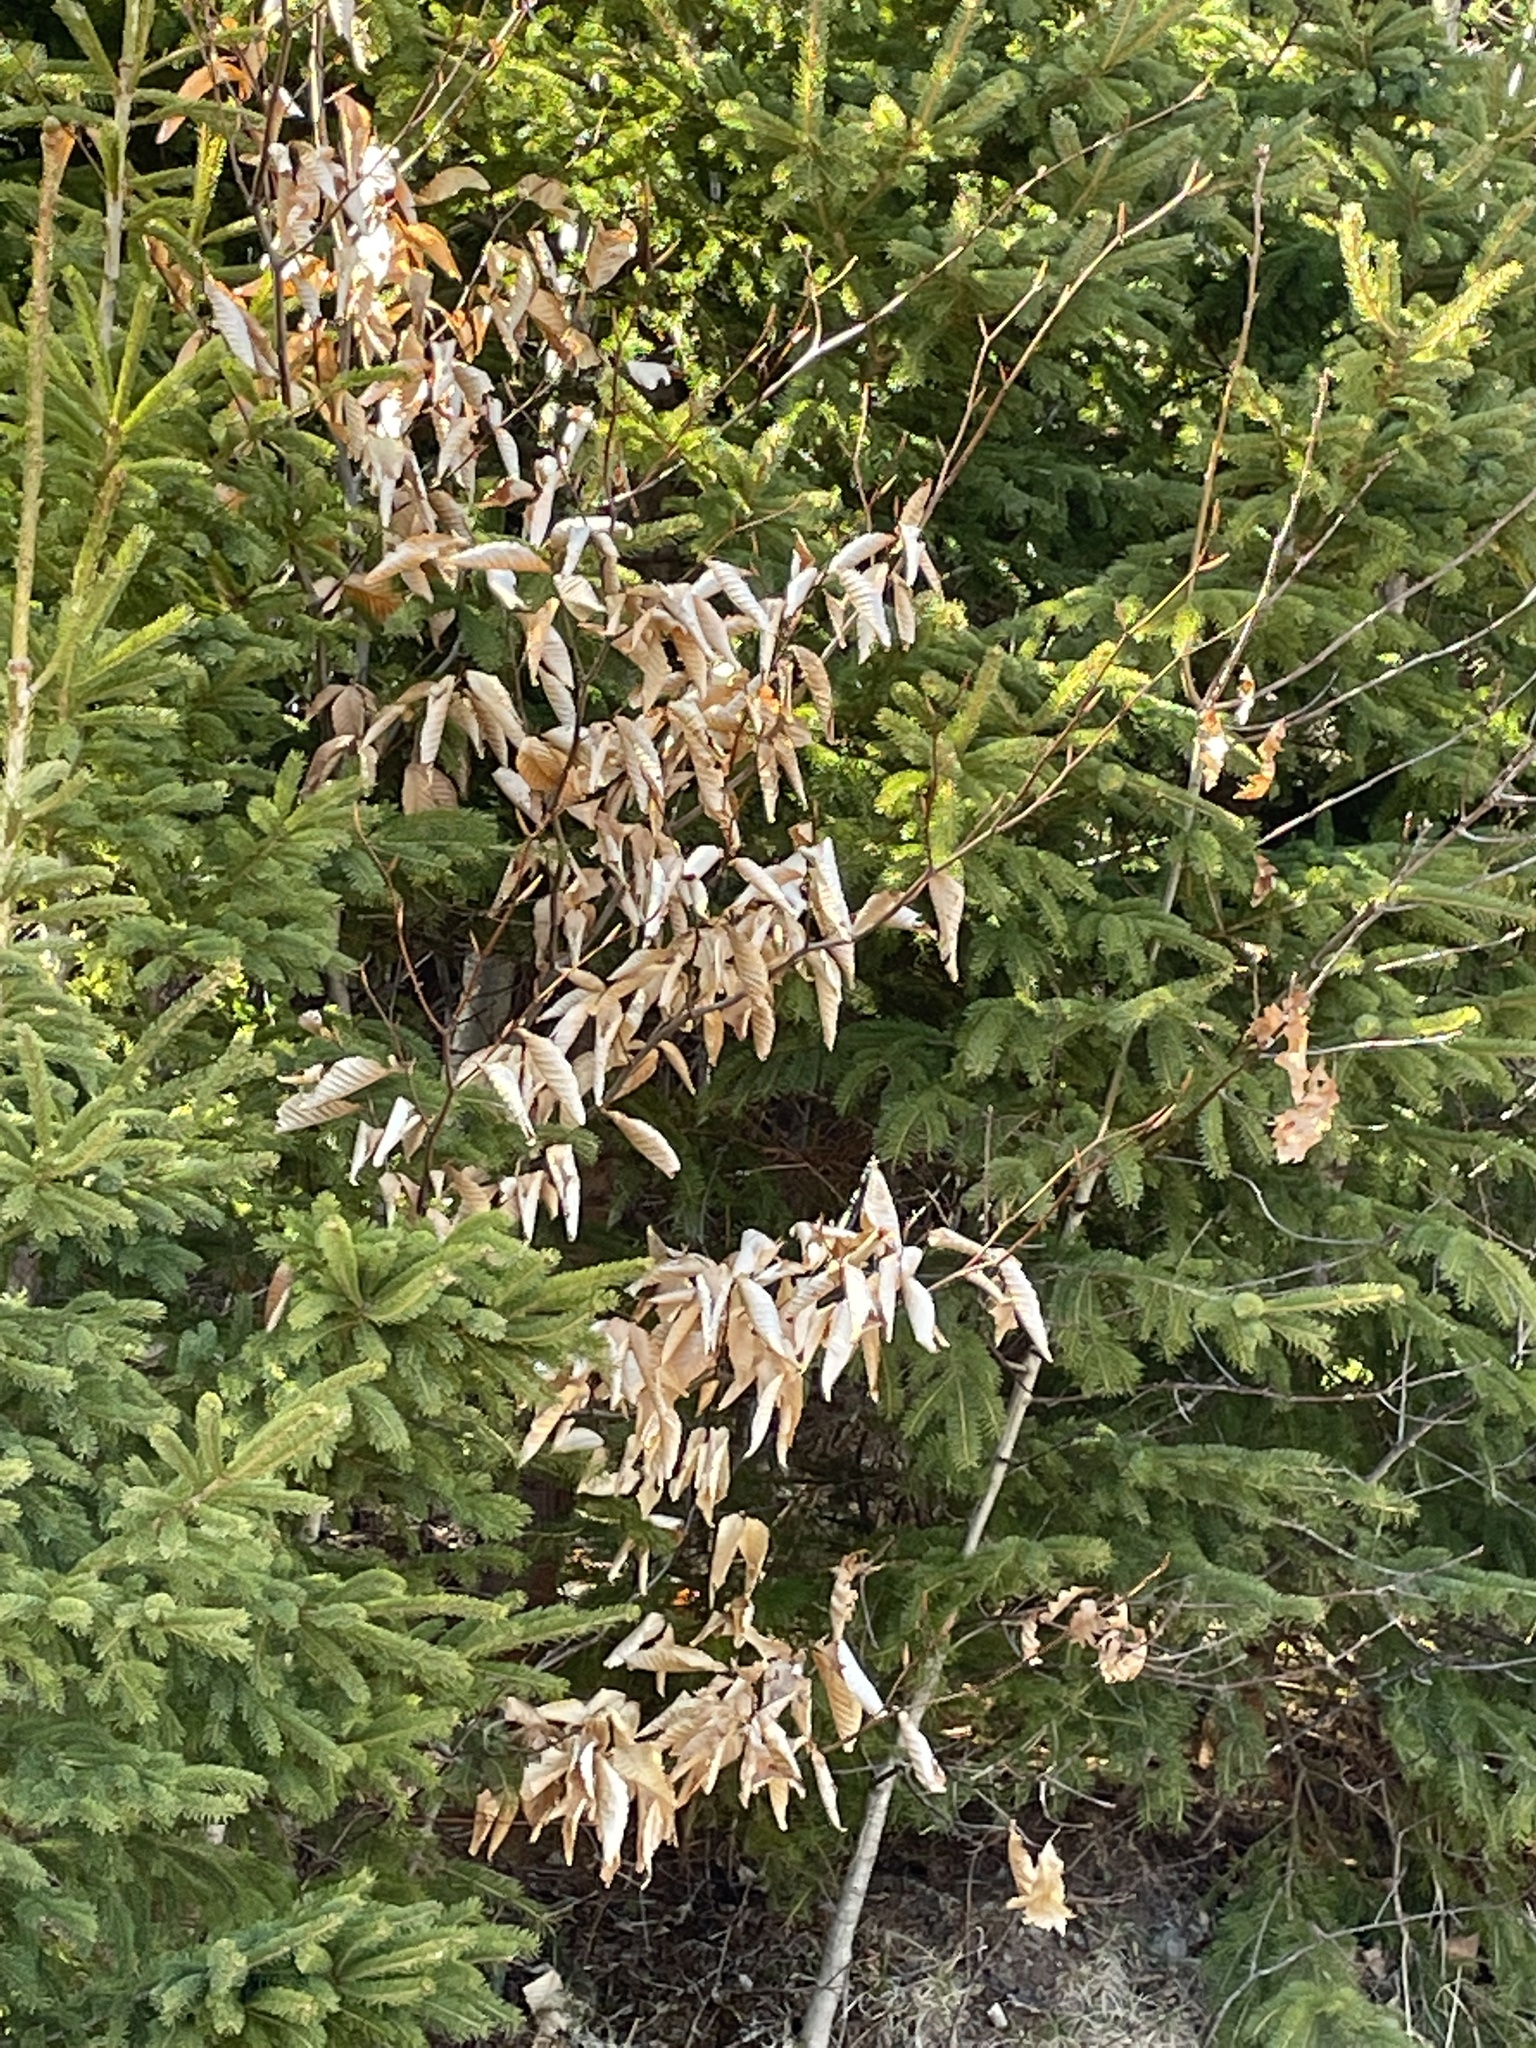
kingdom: Plantae
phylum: Tracheophyta
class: Magnoliopsida
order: Fagales
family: Fagaceae
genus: Fagus
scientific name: Fagus grandifolia
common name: American beech
